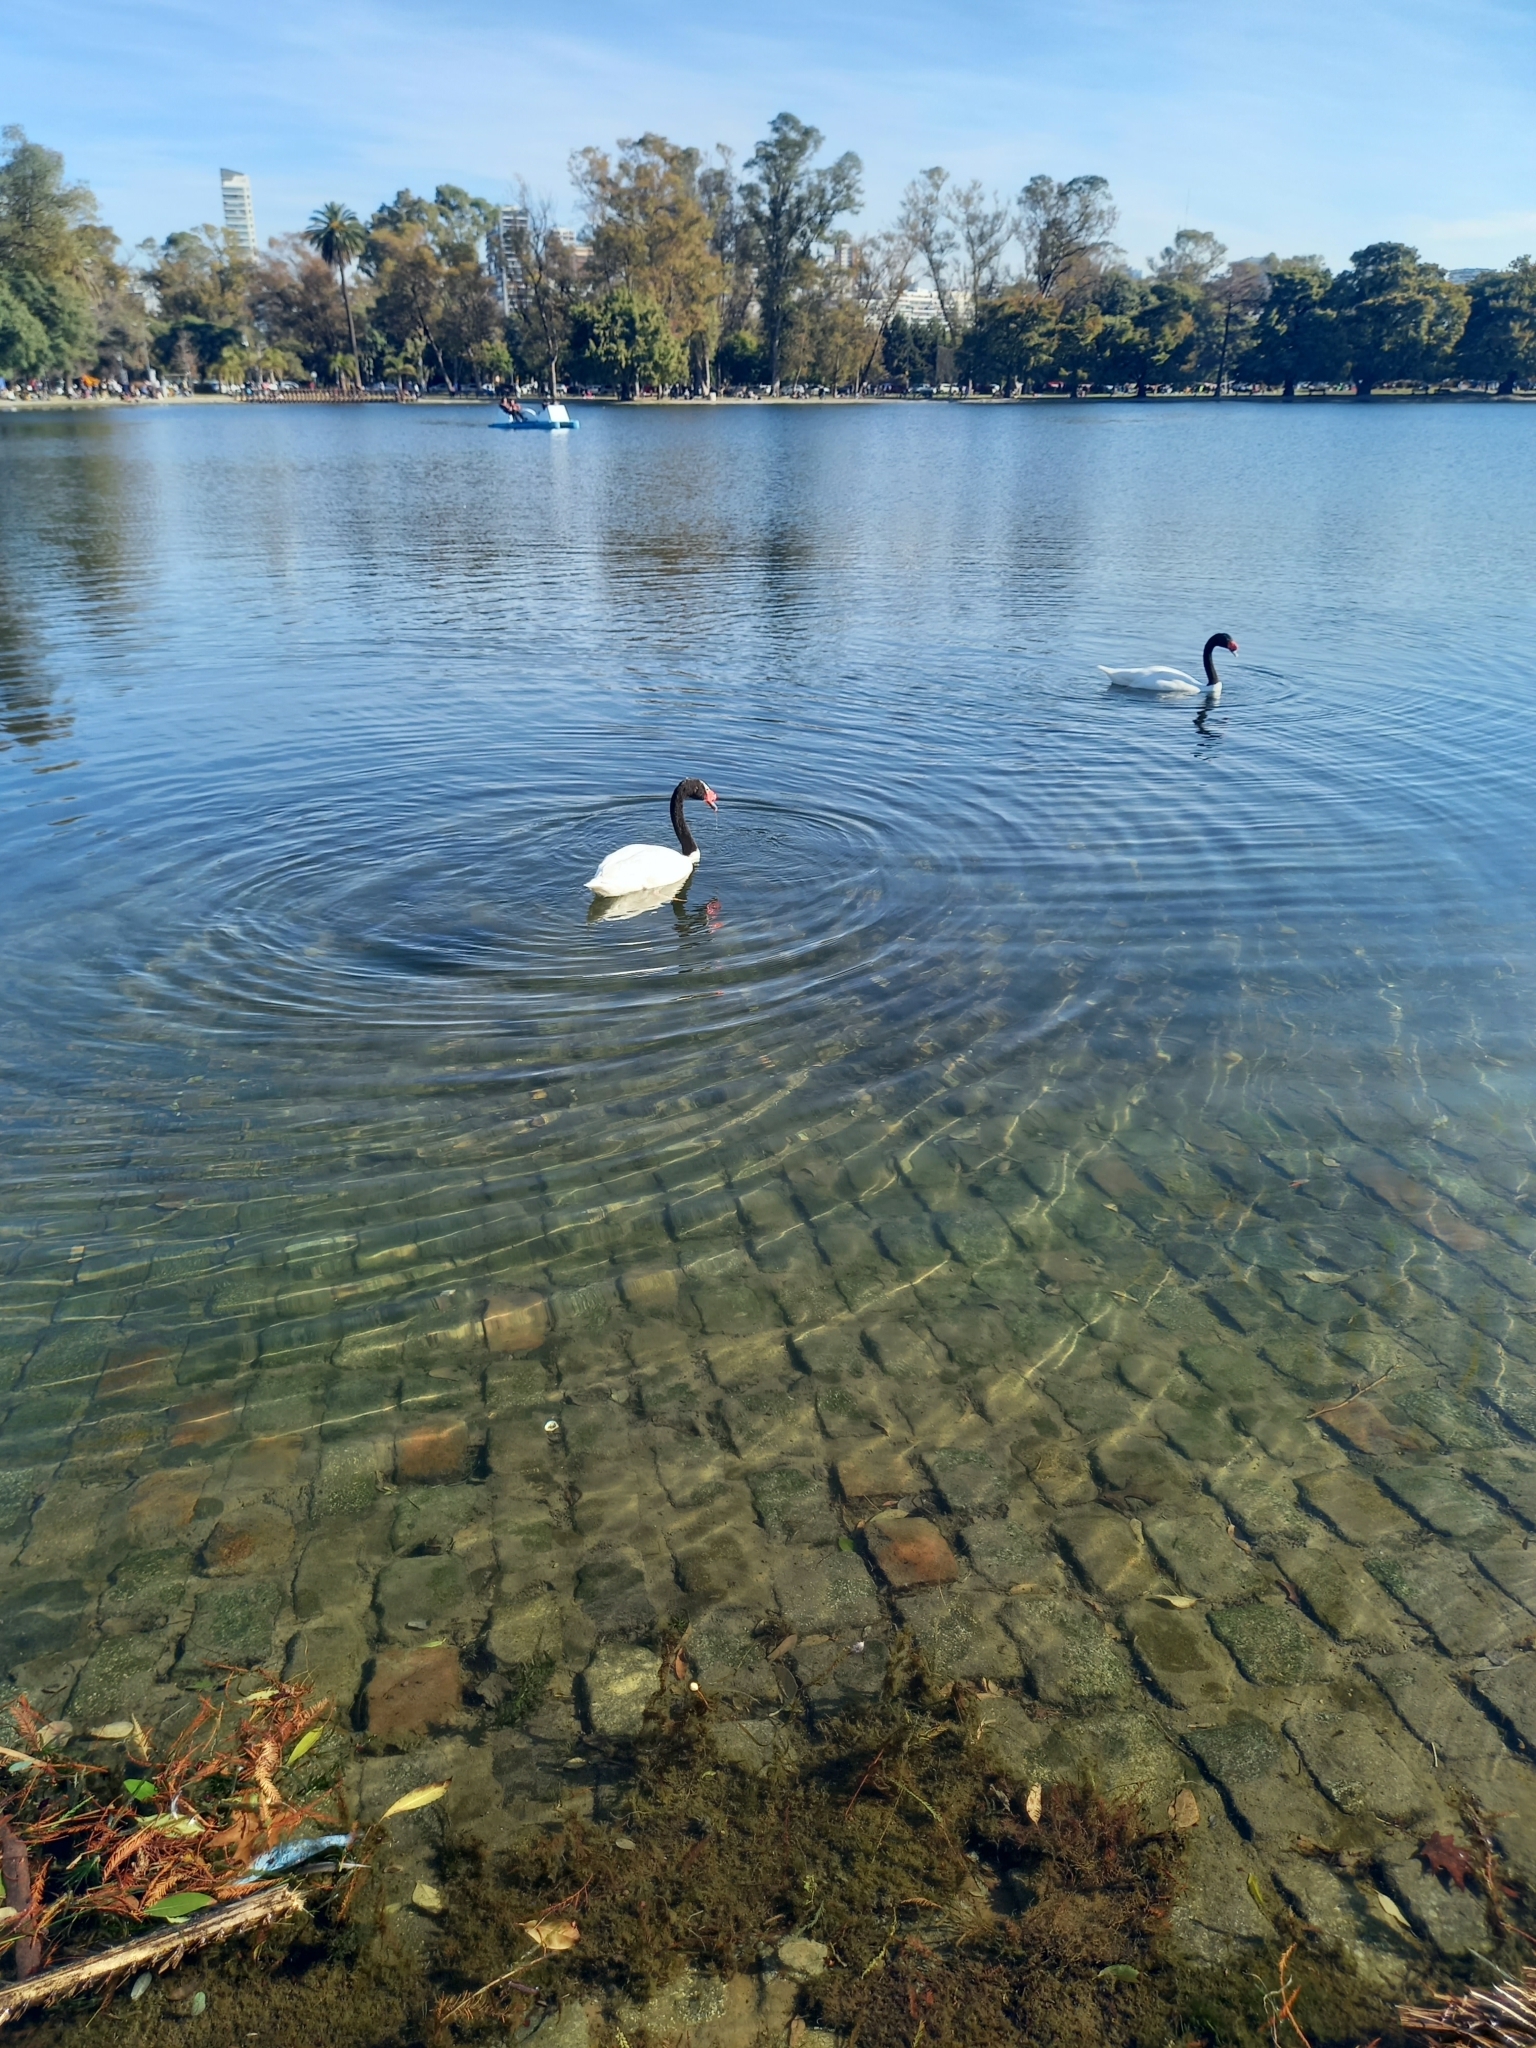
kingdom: Animalia
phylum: Chordata
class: Aves
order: Anseriformes
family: Anatidae
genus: Cygnus
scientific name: Cygnus melancoryphus
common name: Black-necked swan
